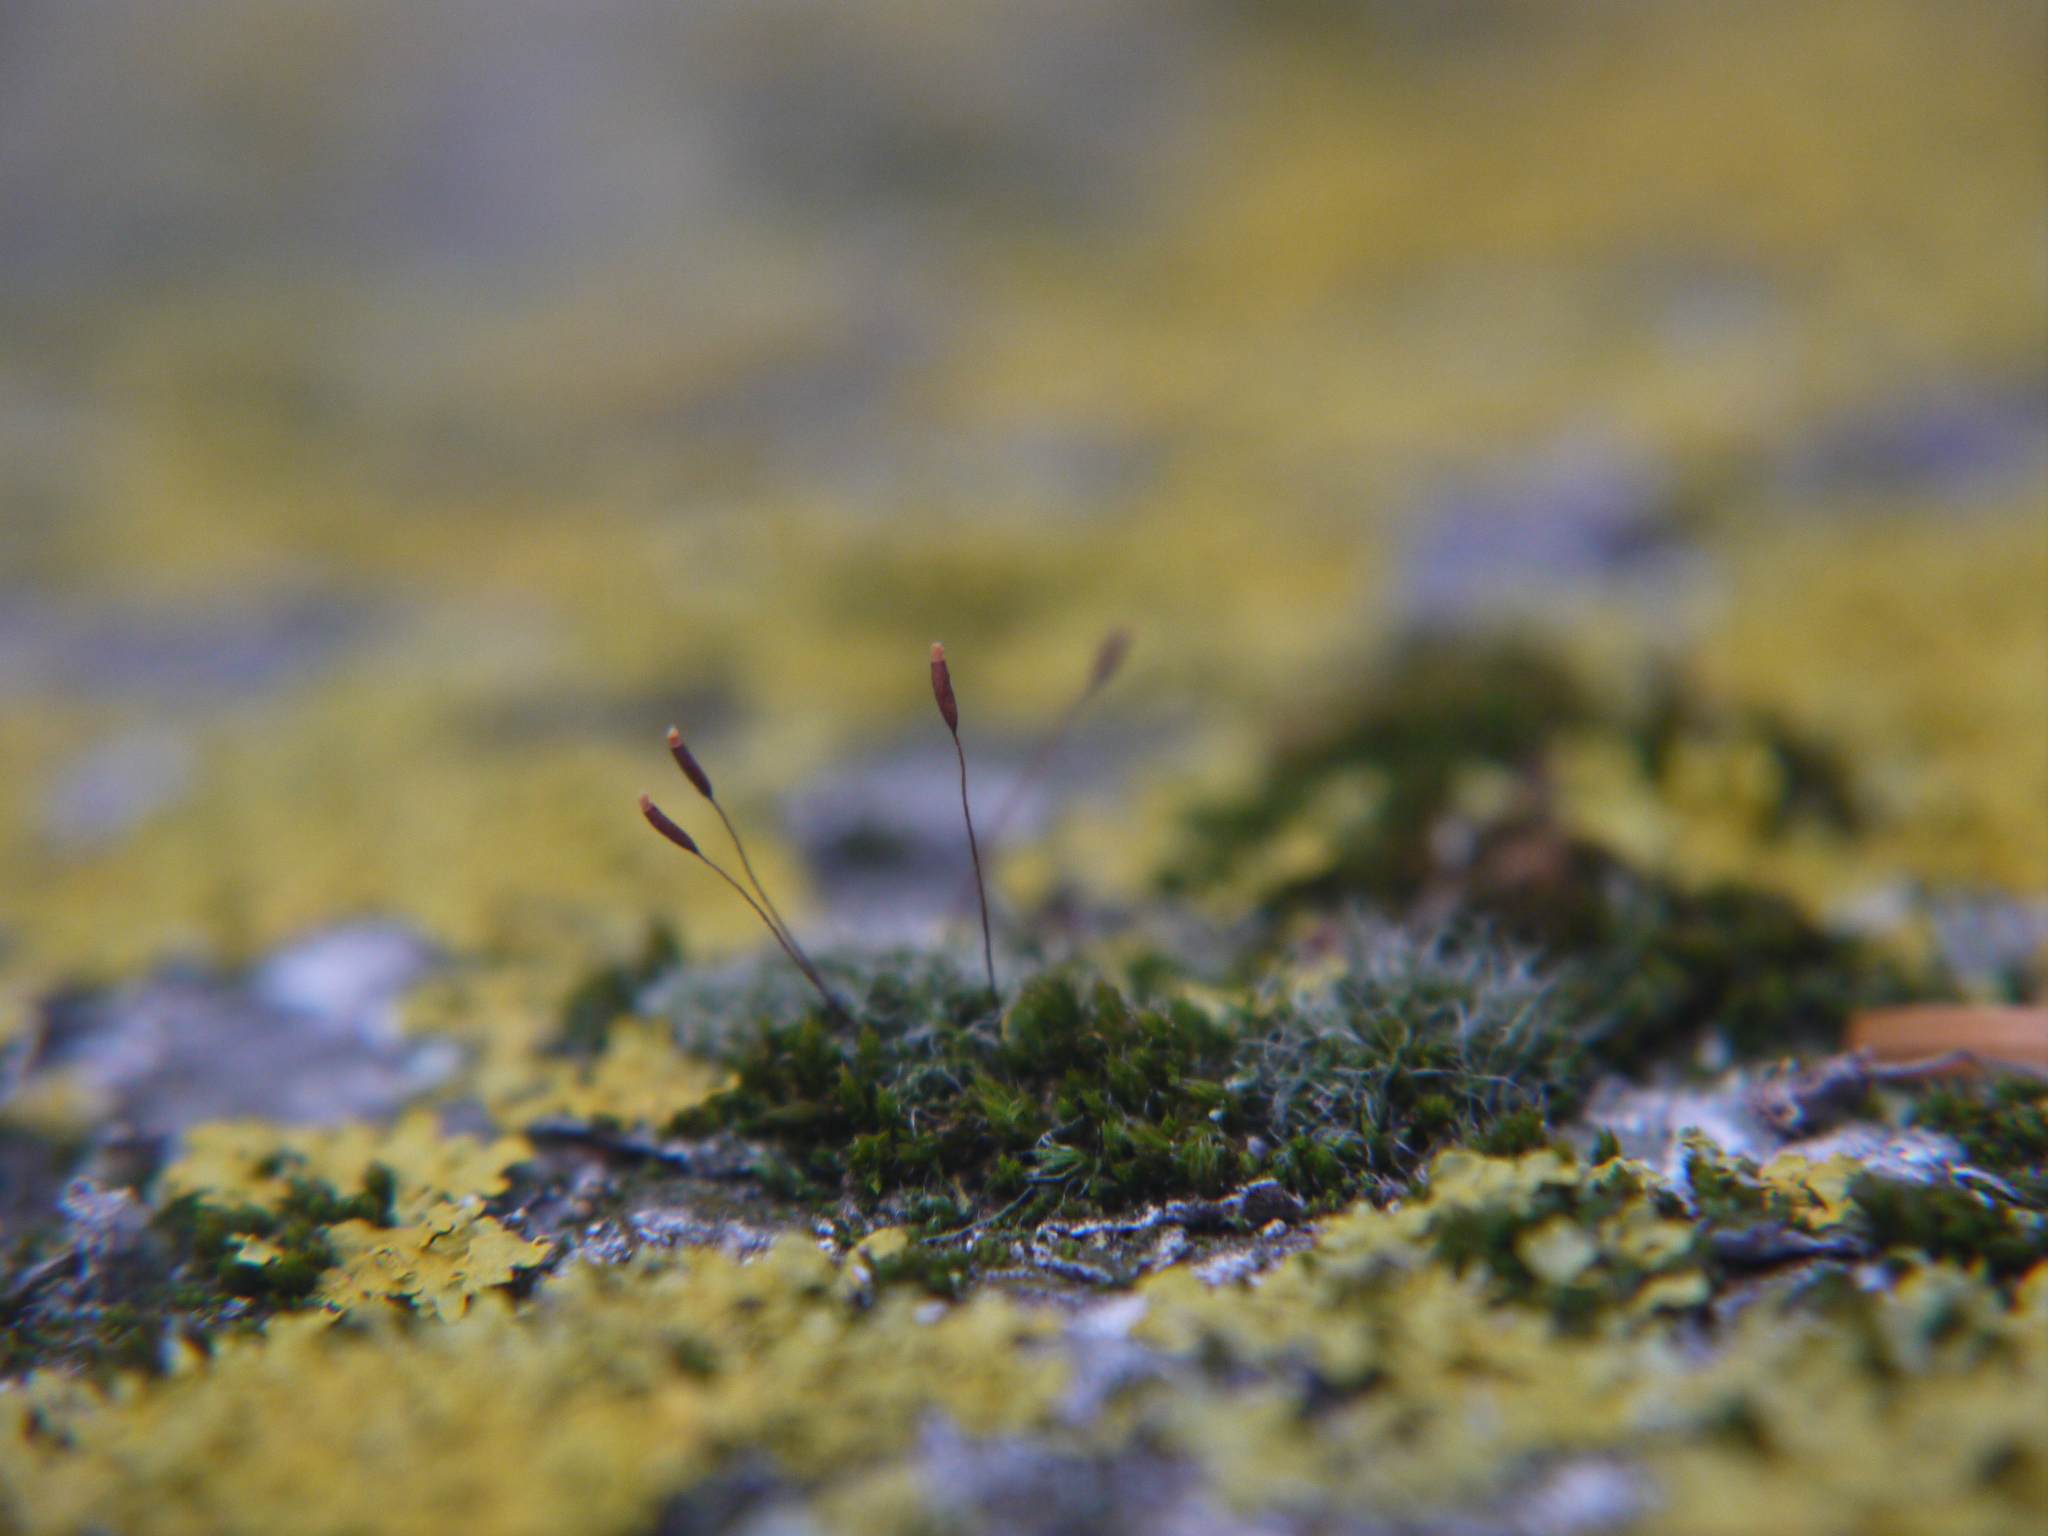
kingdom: Plantae
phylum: Bryophyta
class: Bryopsida
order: Pottiales
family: Pottiaceae
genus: Tortula
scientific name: Tortula muralis
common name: Wall screw-moss
